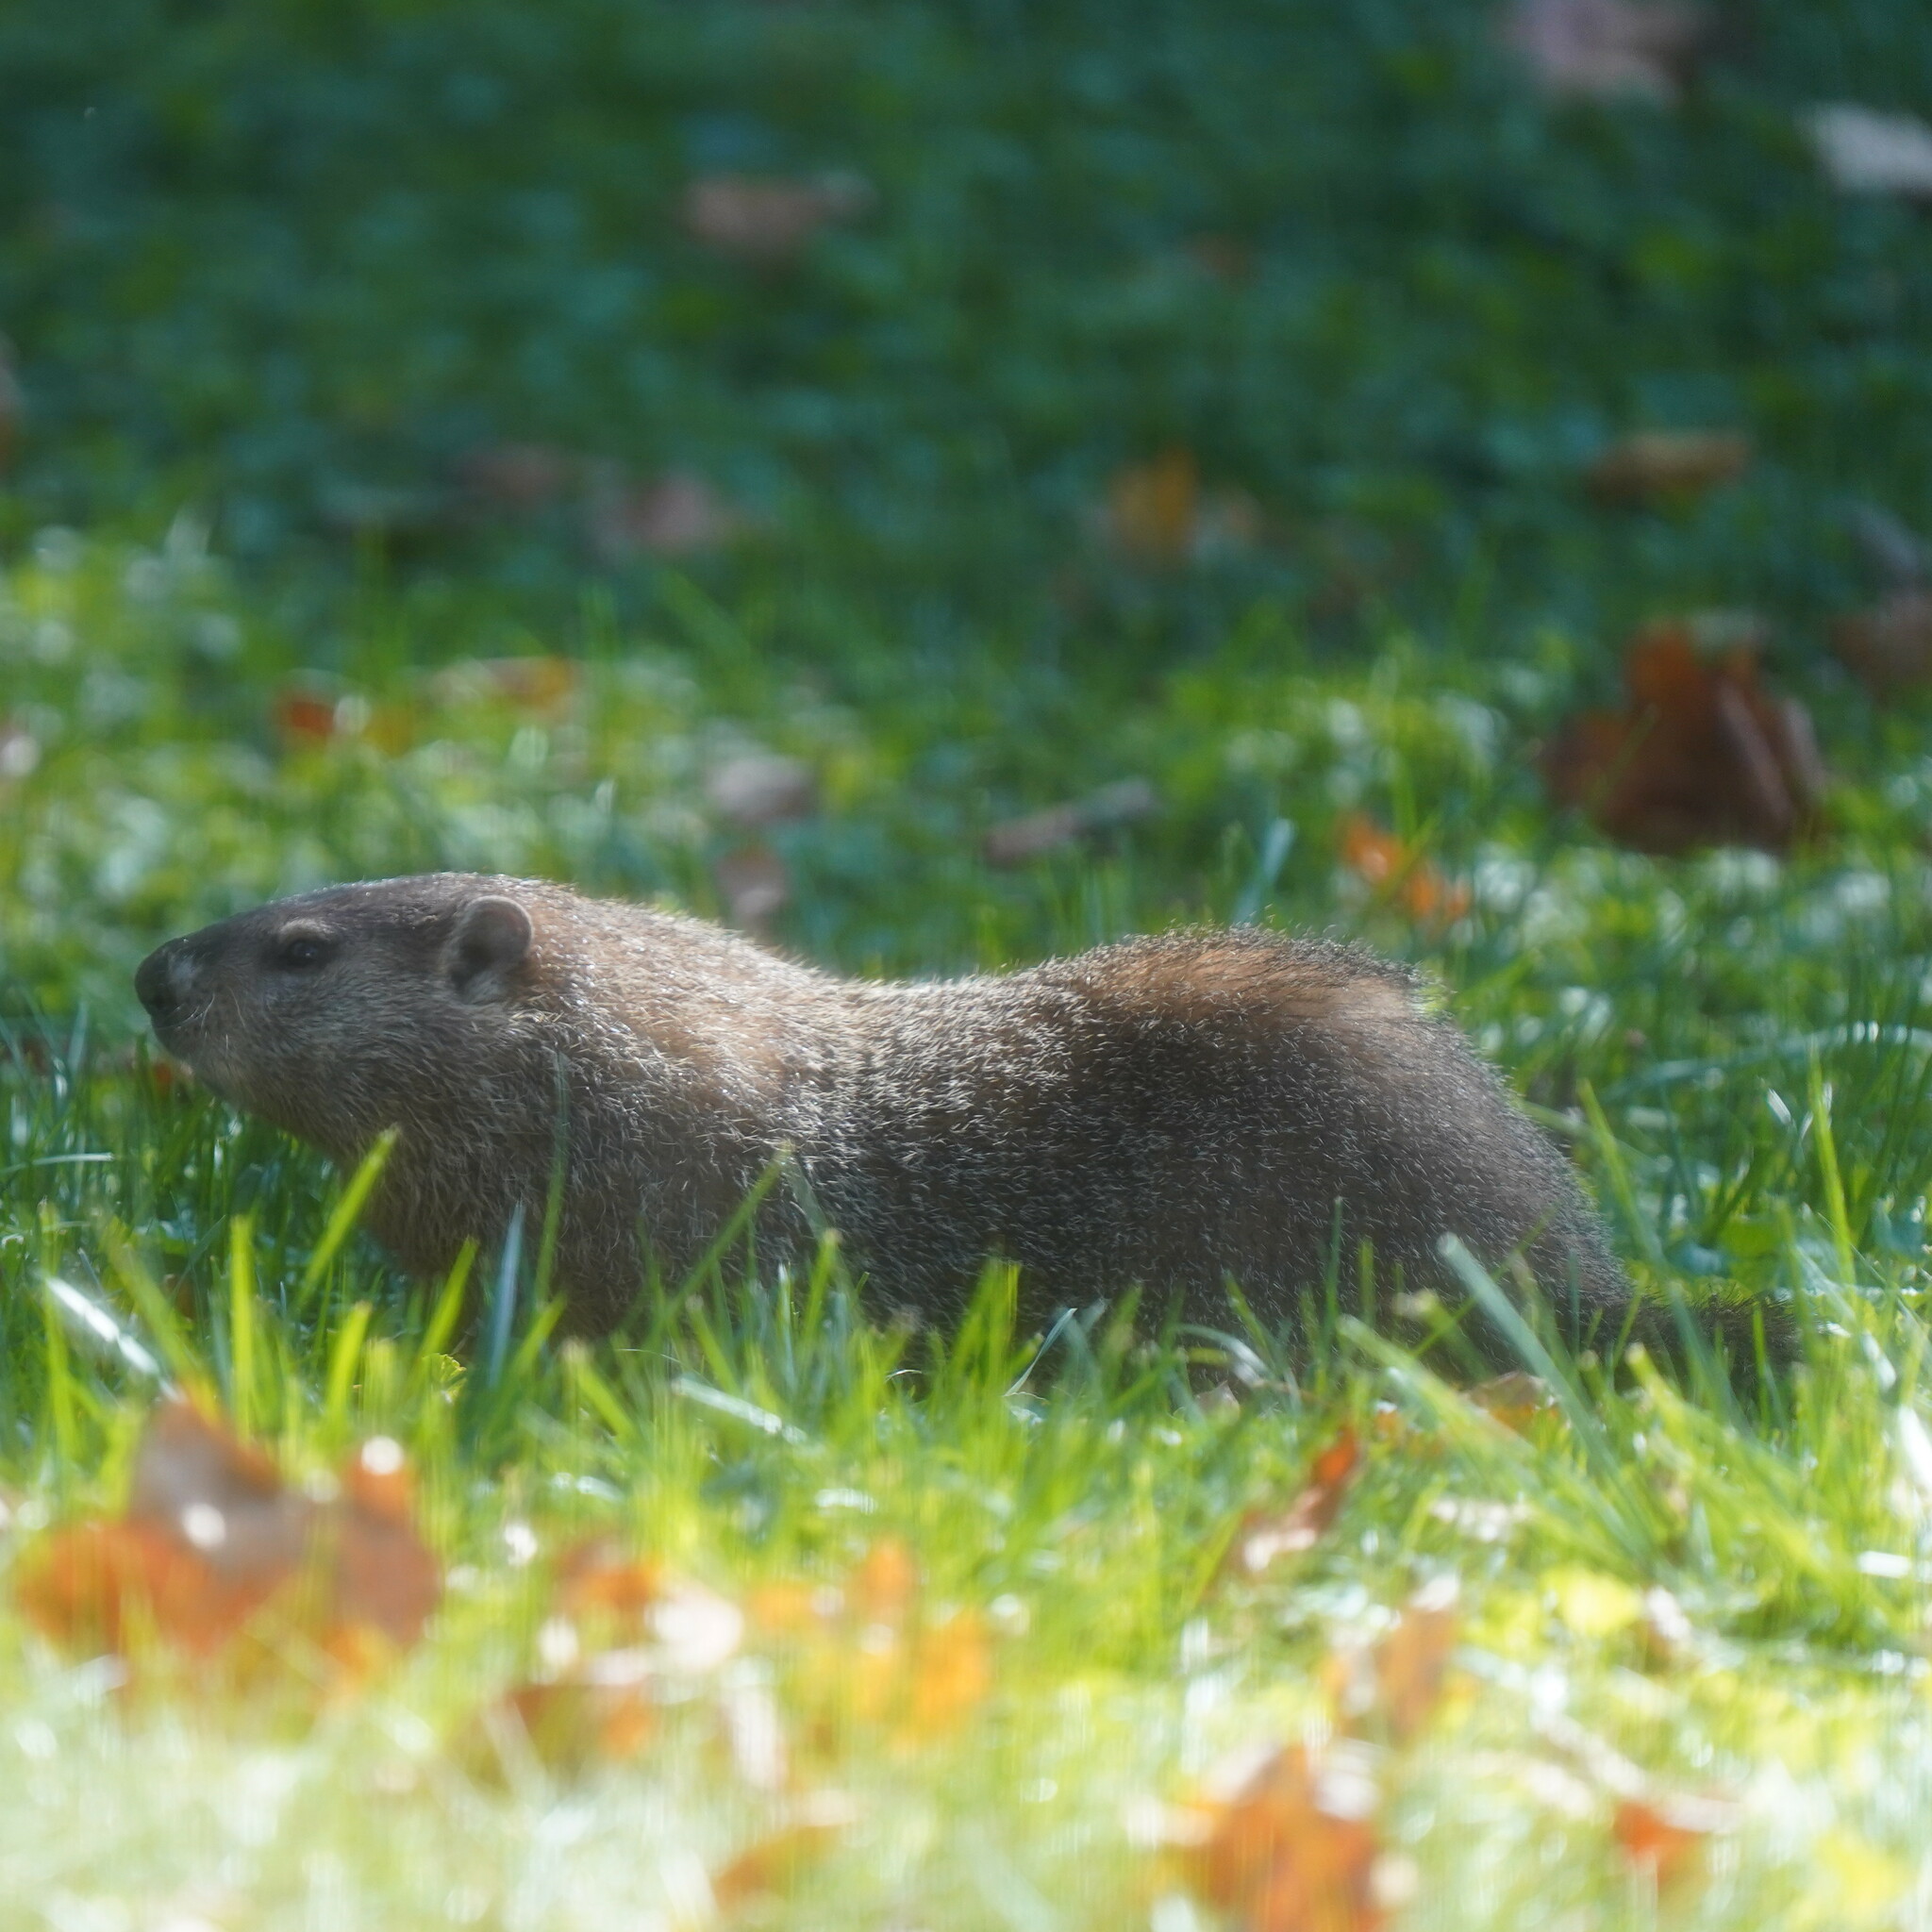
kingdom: Animalia
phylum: Chordata
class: Mammalia
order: Rodentia
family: Sciuridae
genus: Marmota
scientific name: Marmota monax
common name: Groundhog
